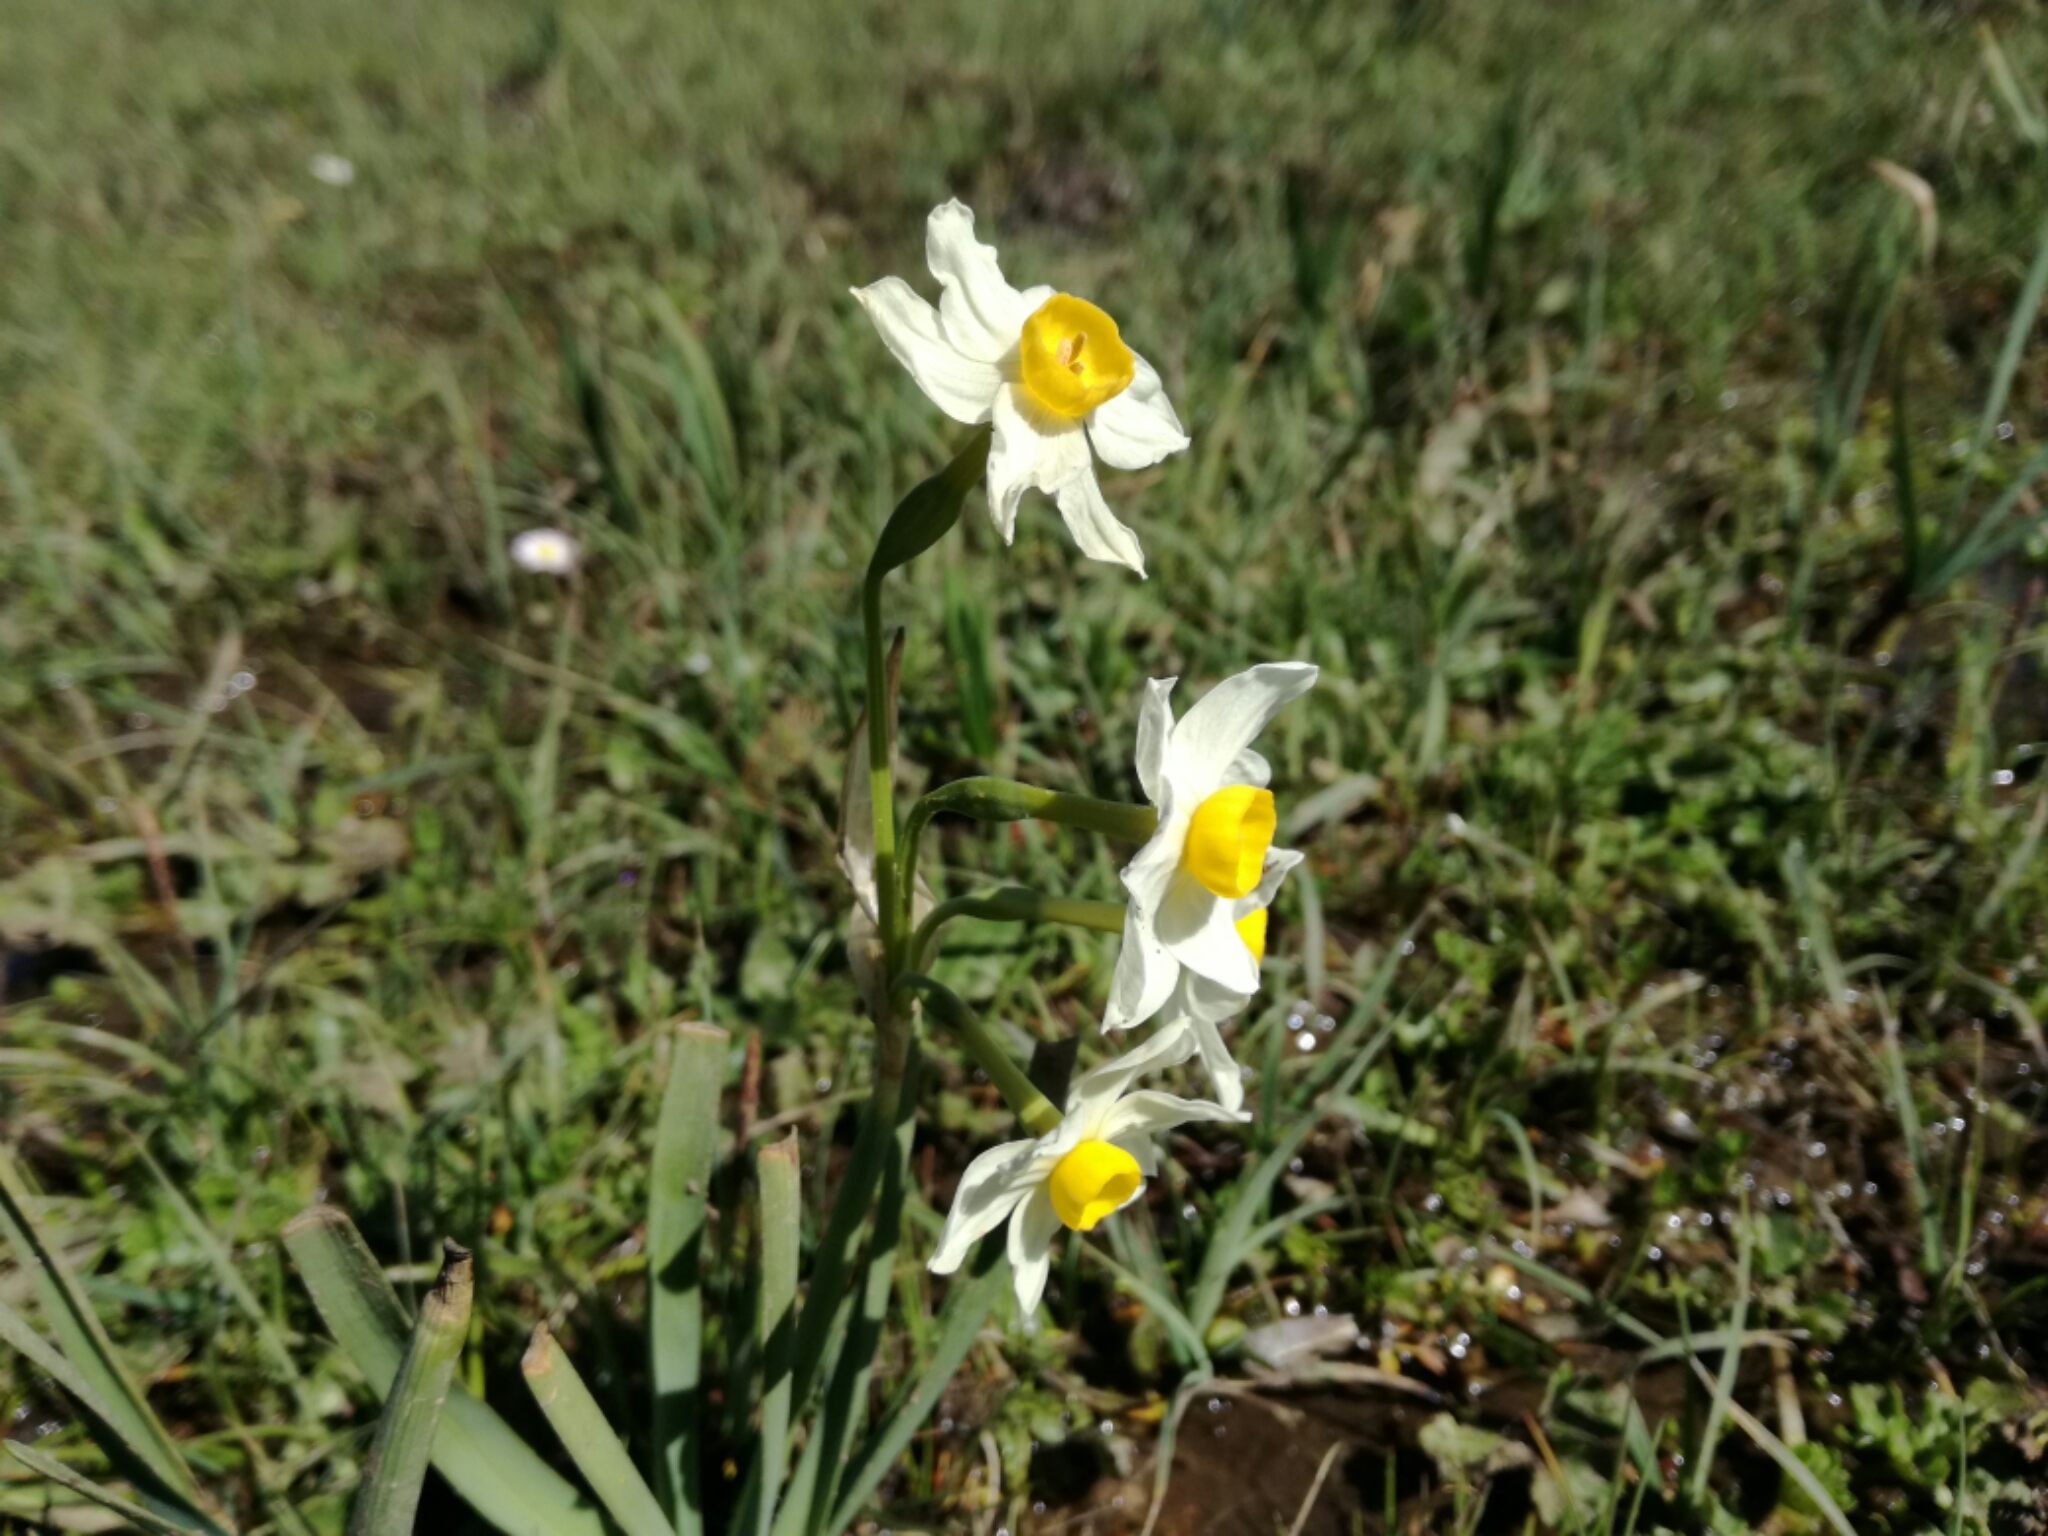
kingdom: Plantae
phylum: Tracheophyta
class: Liliopsida
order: Asparagales
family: Amaryllidaceae
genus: Narcissus
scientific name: Narcissus tazetta
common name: Bunch-flowered daffodil
